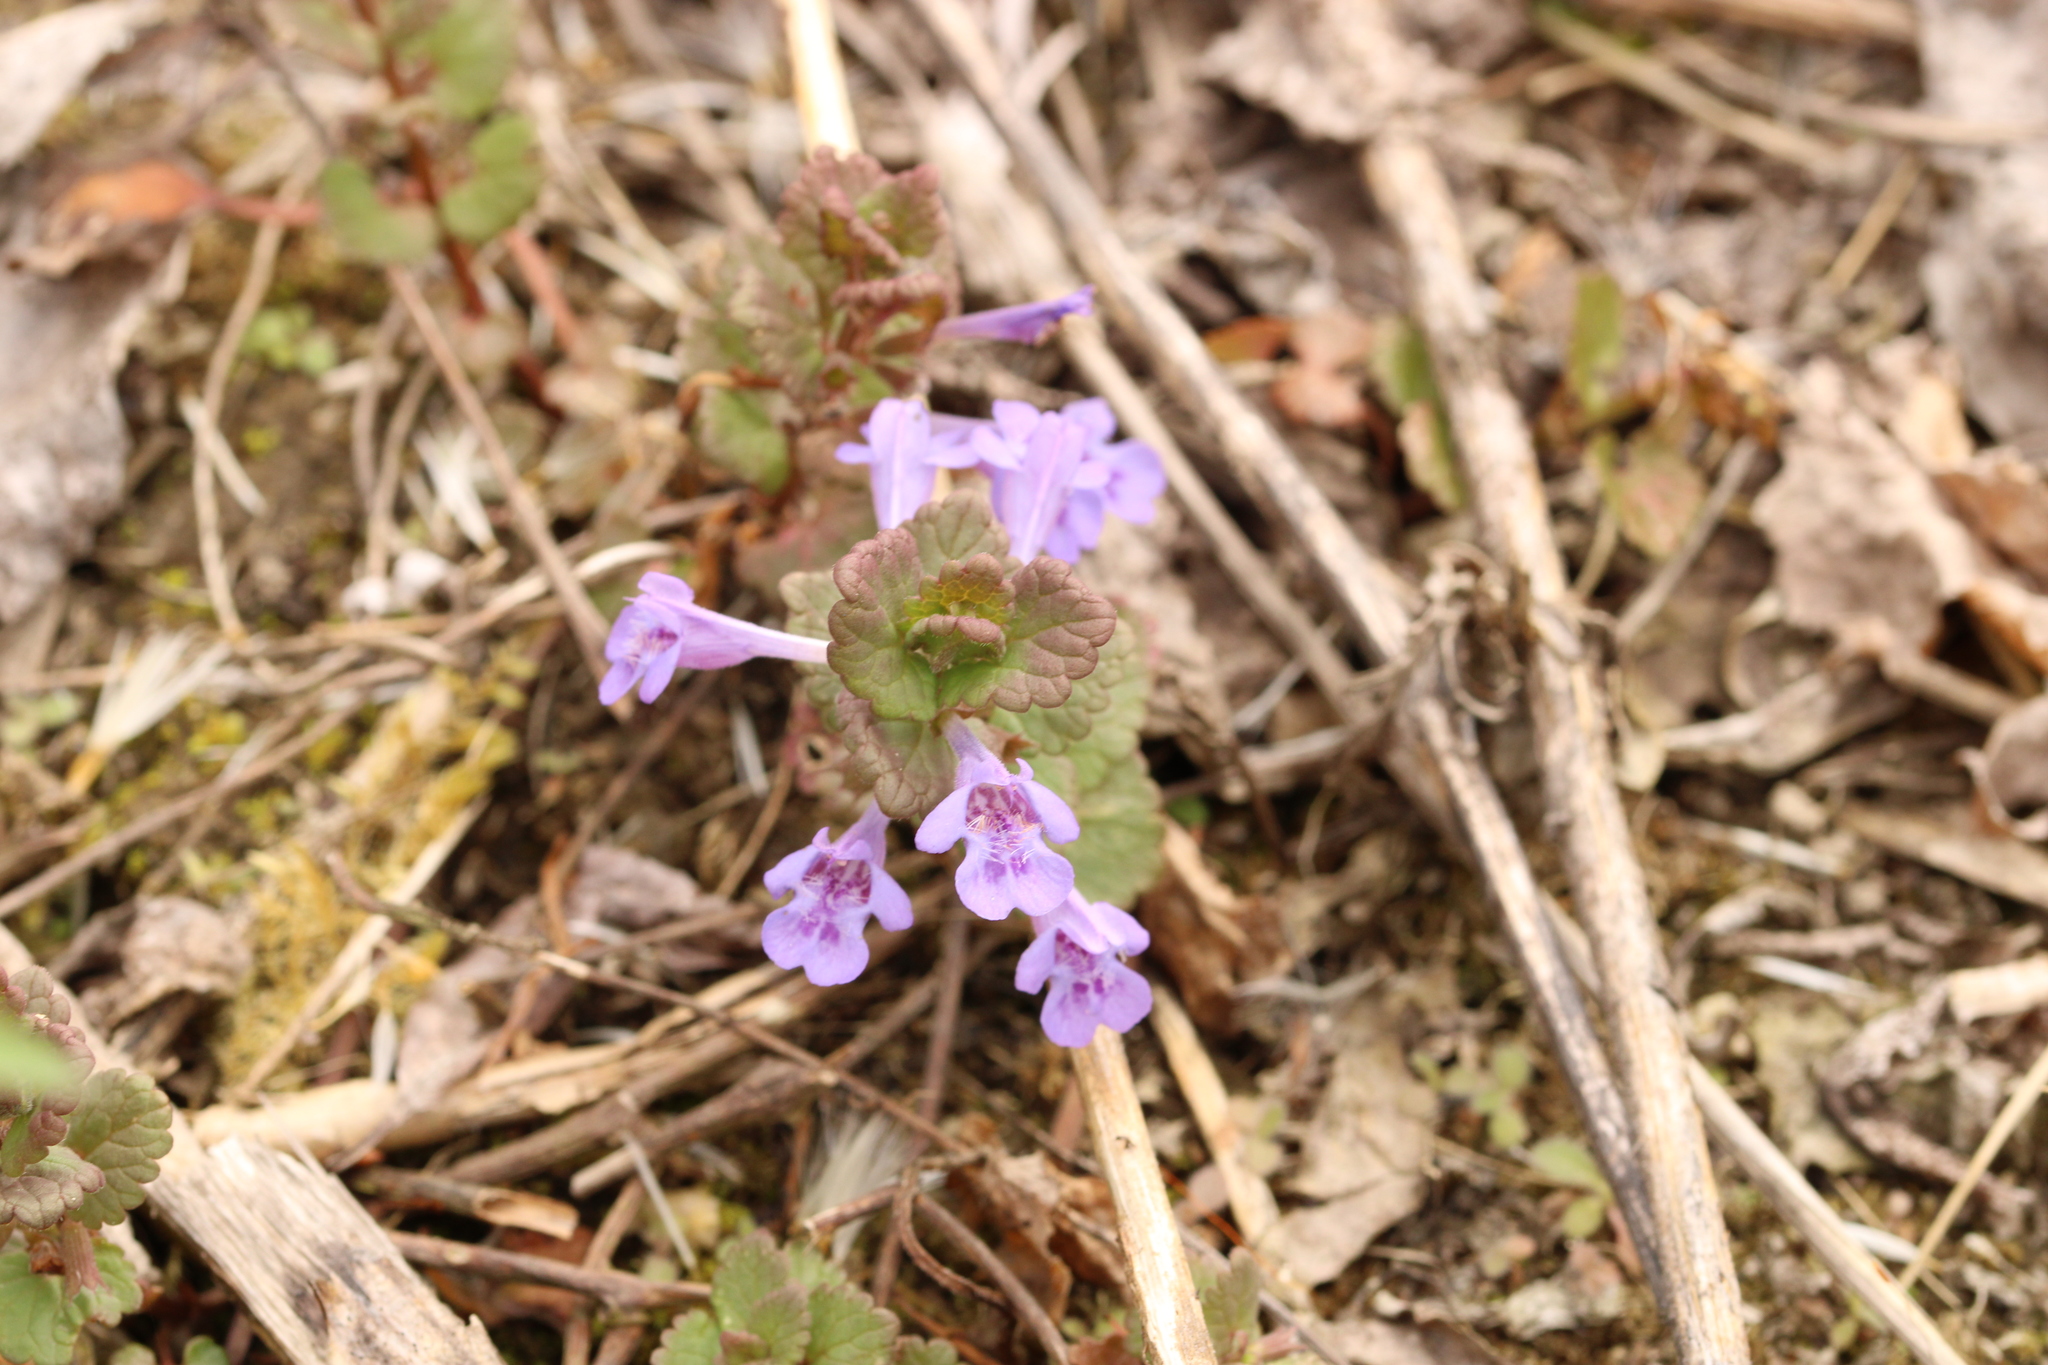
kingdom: Plantae
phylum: Tracheophyta
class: Magnoliopsida
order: Lamiales
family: Lamiaceae
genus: Glechoma
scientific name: Glechoma hederacea
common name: Ground ivy
